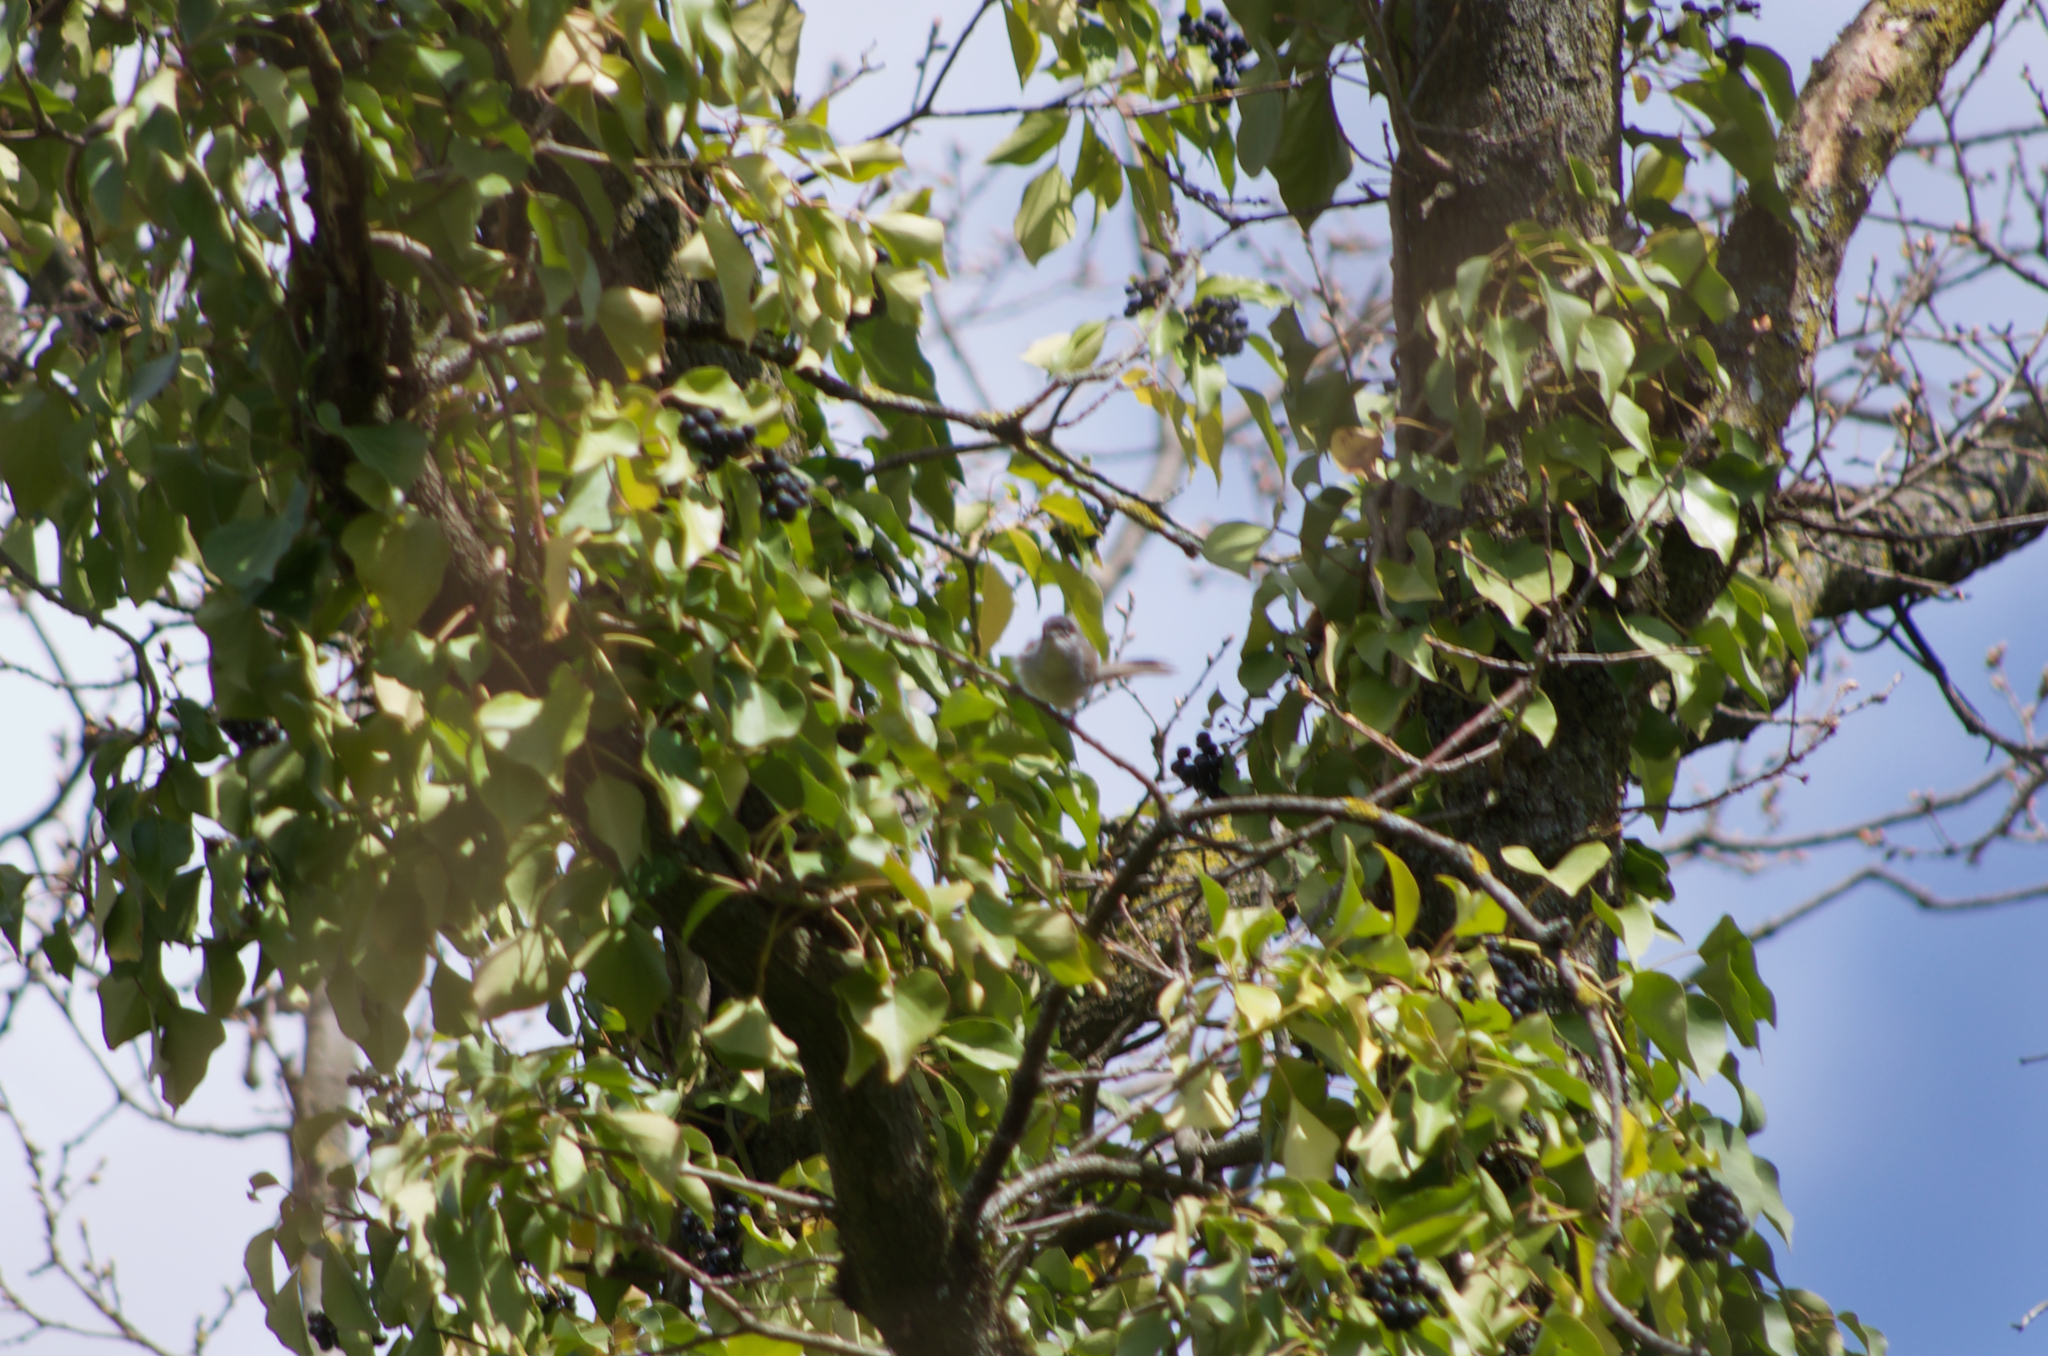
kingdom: Animalia
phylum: Chordata
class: Aves
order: Passeriformes
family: Sylviidae
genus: Sylvia
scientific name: Sylvia atricapilla
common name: Eurasian blackcap
